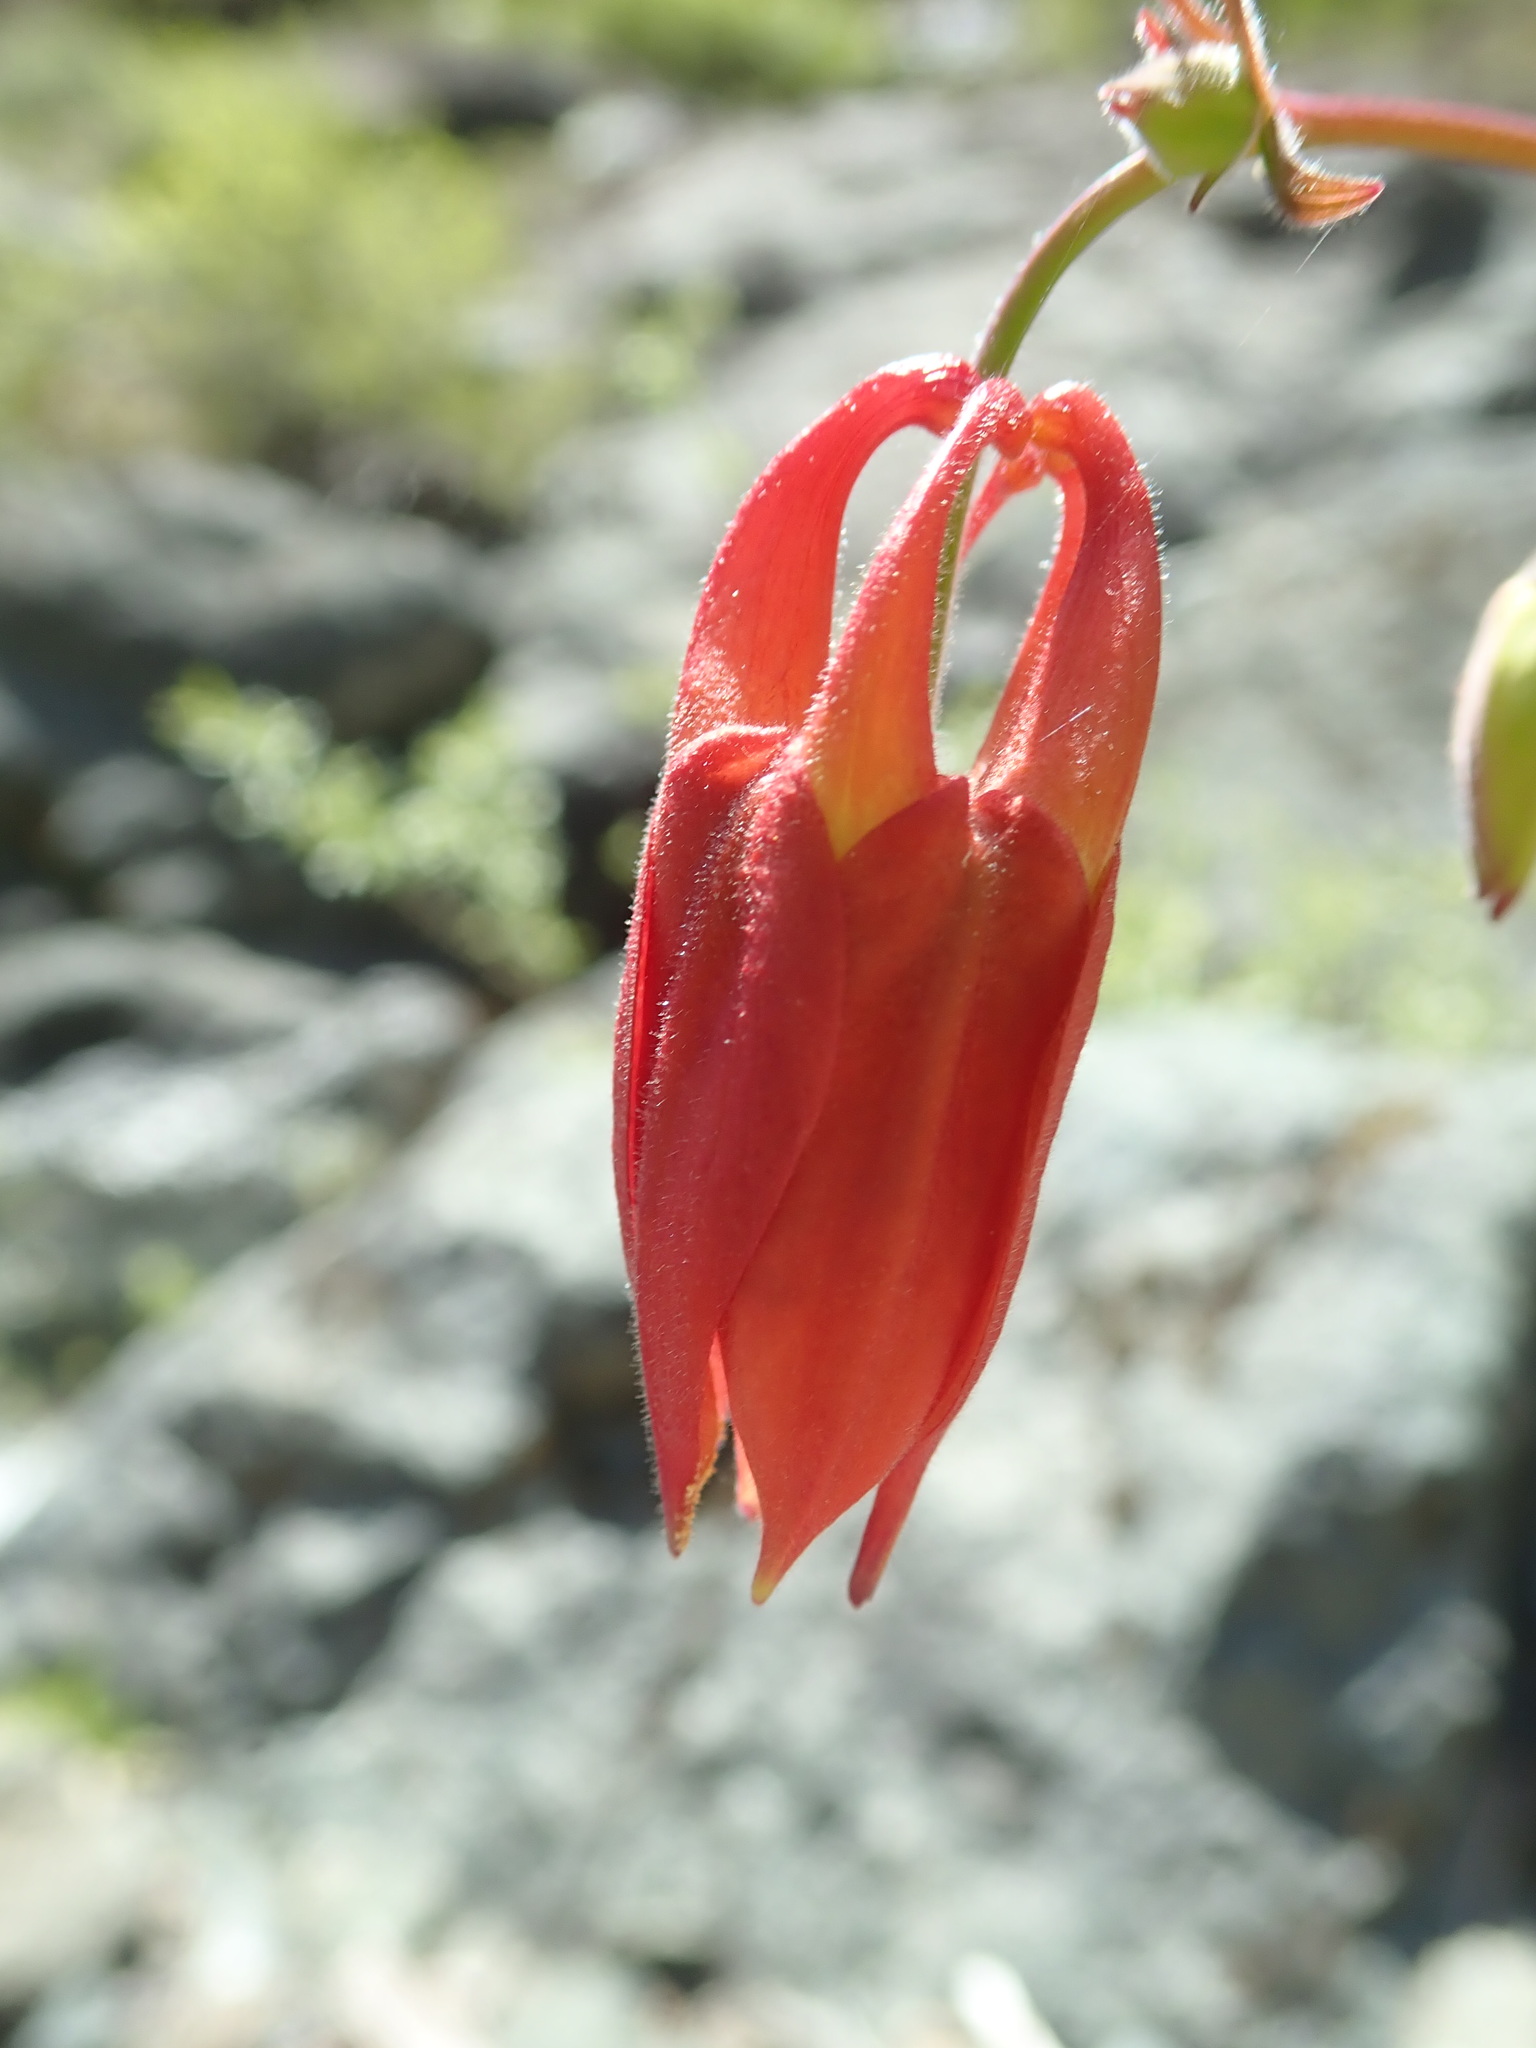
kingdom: Plantae
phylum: Tracheophyta
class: Magnoliopsida
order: Ranunculales
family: Ranunculaceae
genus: Aquilegia
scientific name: Aquilegia formosa
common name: Sitka columbine
